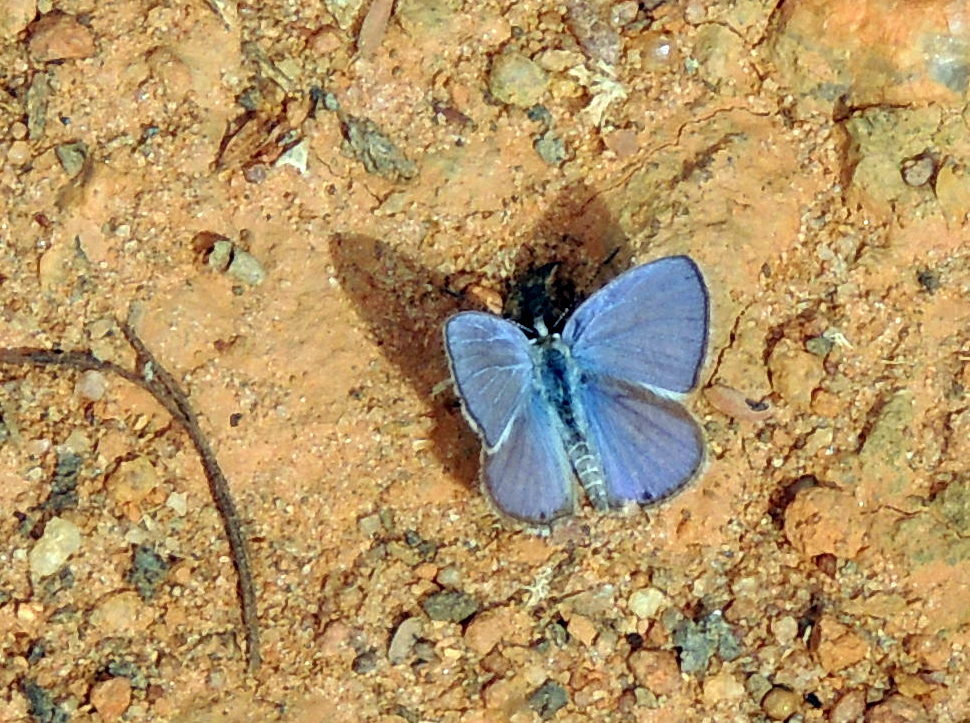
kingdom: Animalia
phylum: Arthropoda
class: Insecta
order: Lepidoptera
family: Lycaenidae
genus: Chilades
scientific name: Chilades parrhasius
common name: Small cupid
